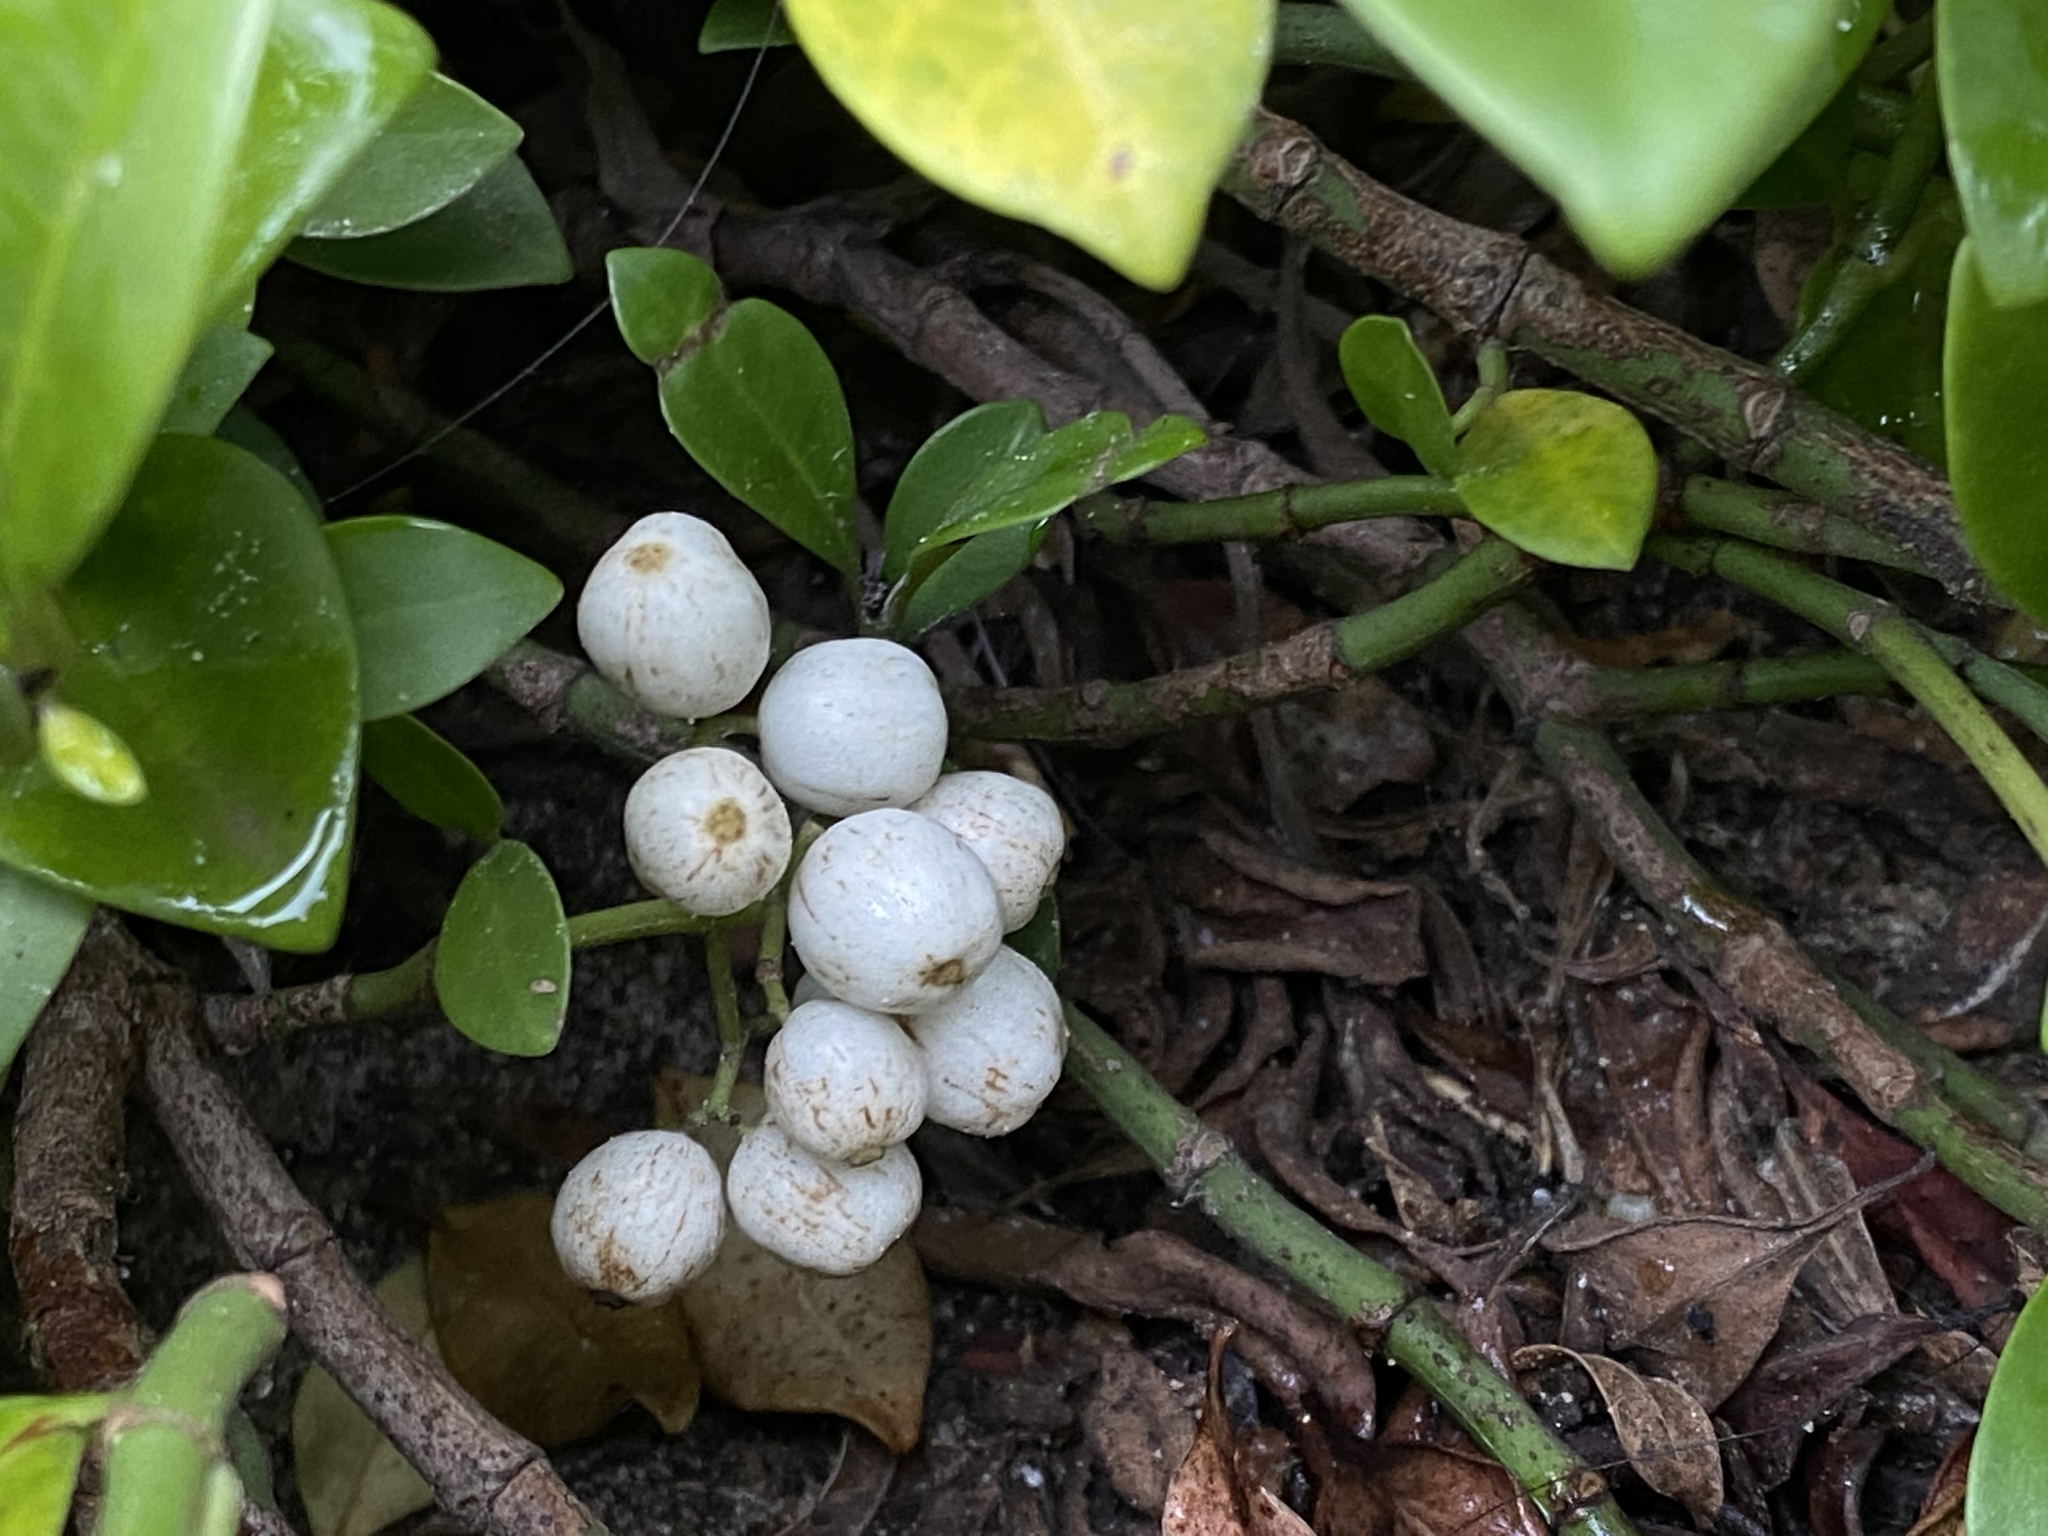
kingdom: Plantae
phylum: Tracheophyta
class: Magnoliopsida
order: Gentianales
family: Rubiaceae
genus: Psychotria
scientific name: Psychotria serpens
